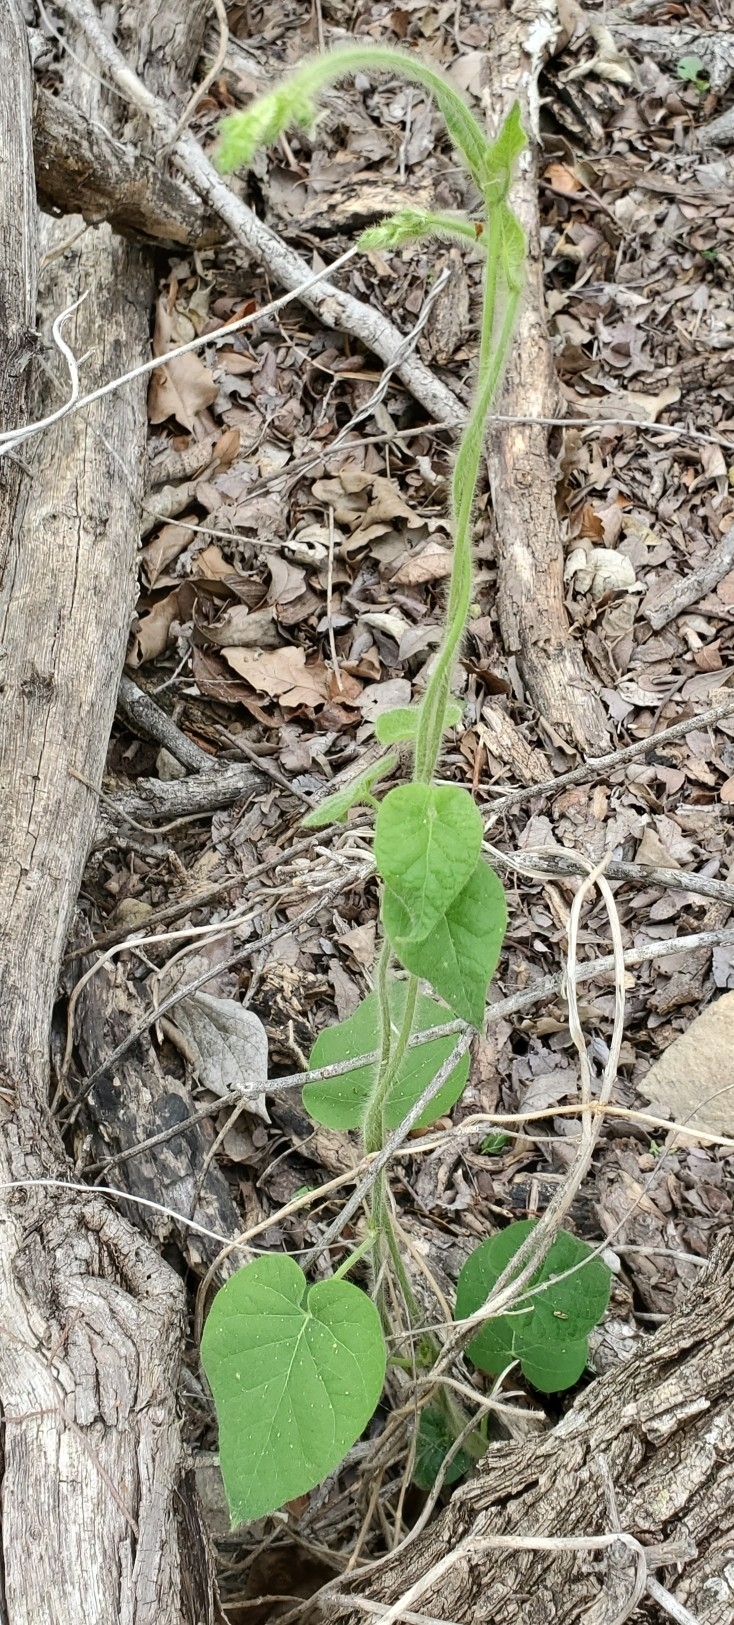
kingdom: Plantae
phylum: Tracheophyta
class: Magnoliopsida
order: Gentianales
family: Apocynaceae
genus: Dictyanthus
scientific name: Dictyanthus reticulatus
